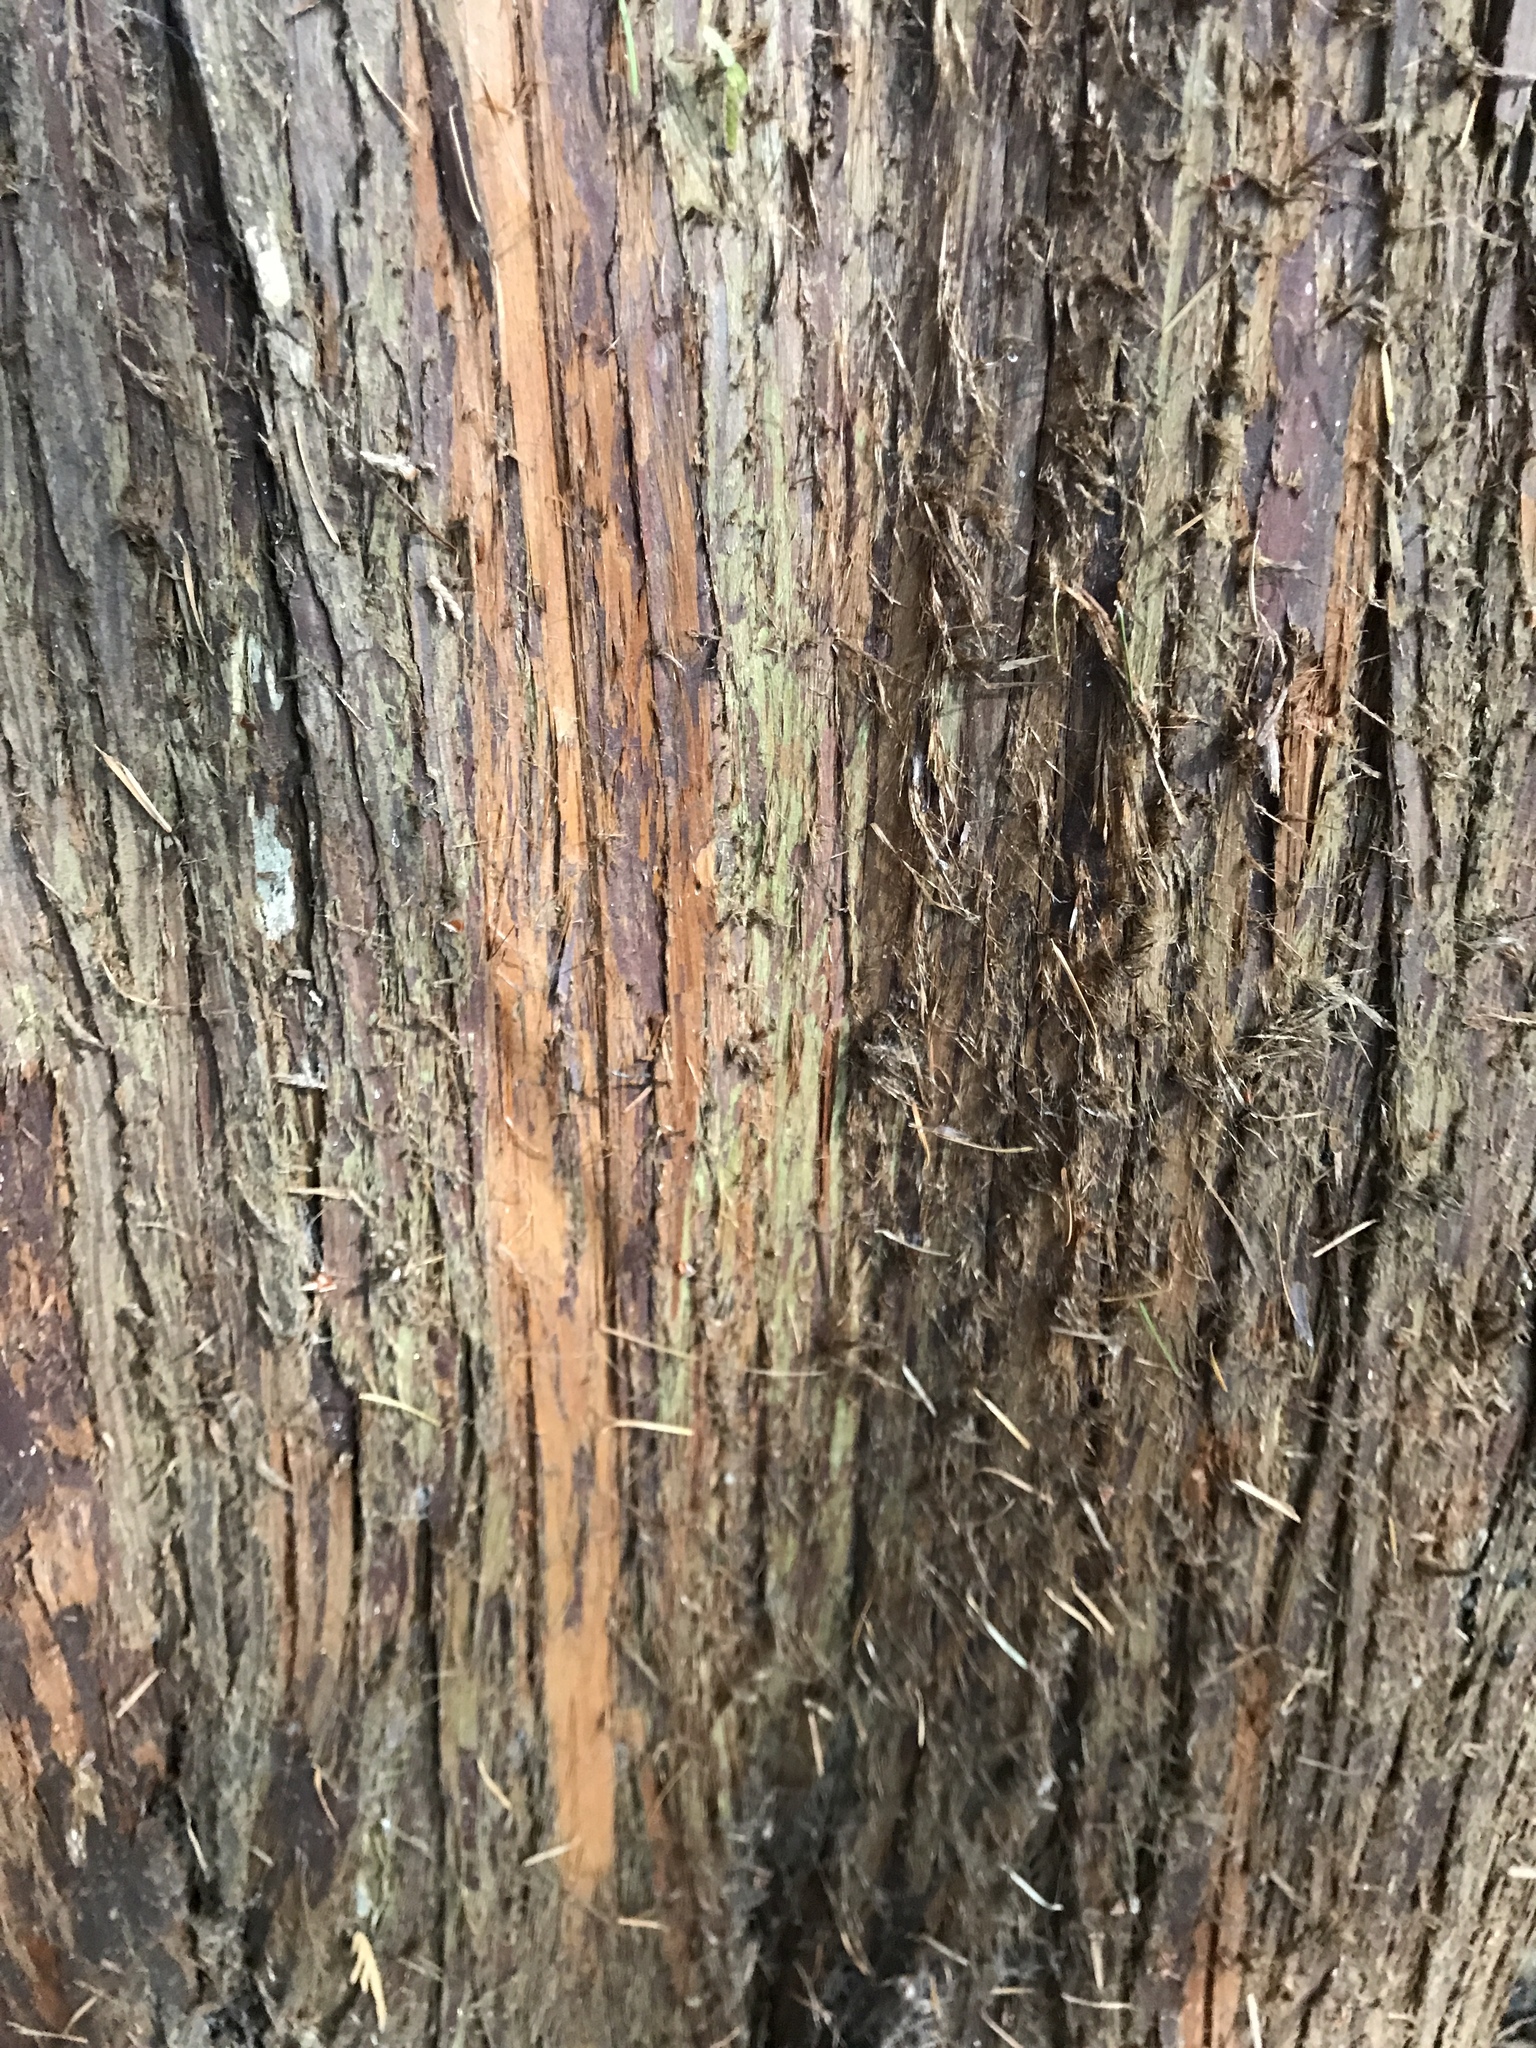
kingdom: Plantae
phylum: Tracheophyta
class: Pinopsida
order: Pinales
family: Cupressaceae
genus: Thuja
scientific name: Thuja plicata
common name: Western red-cedar
